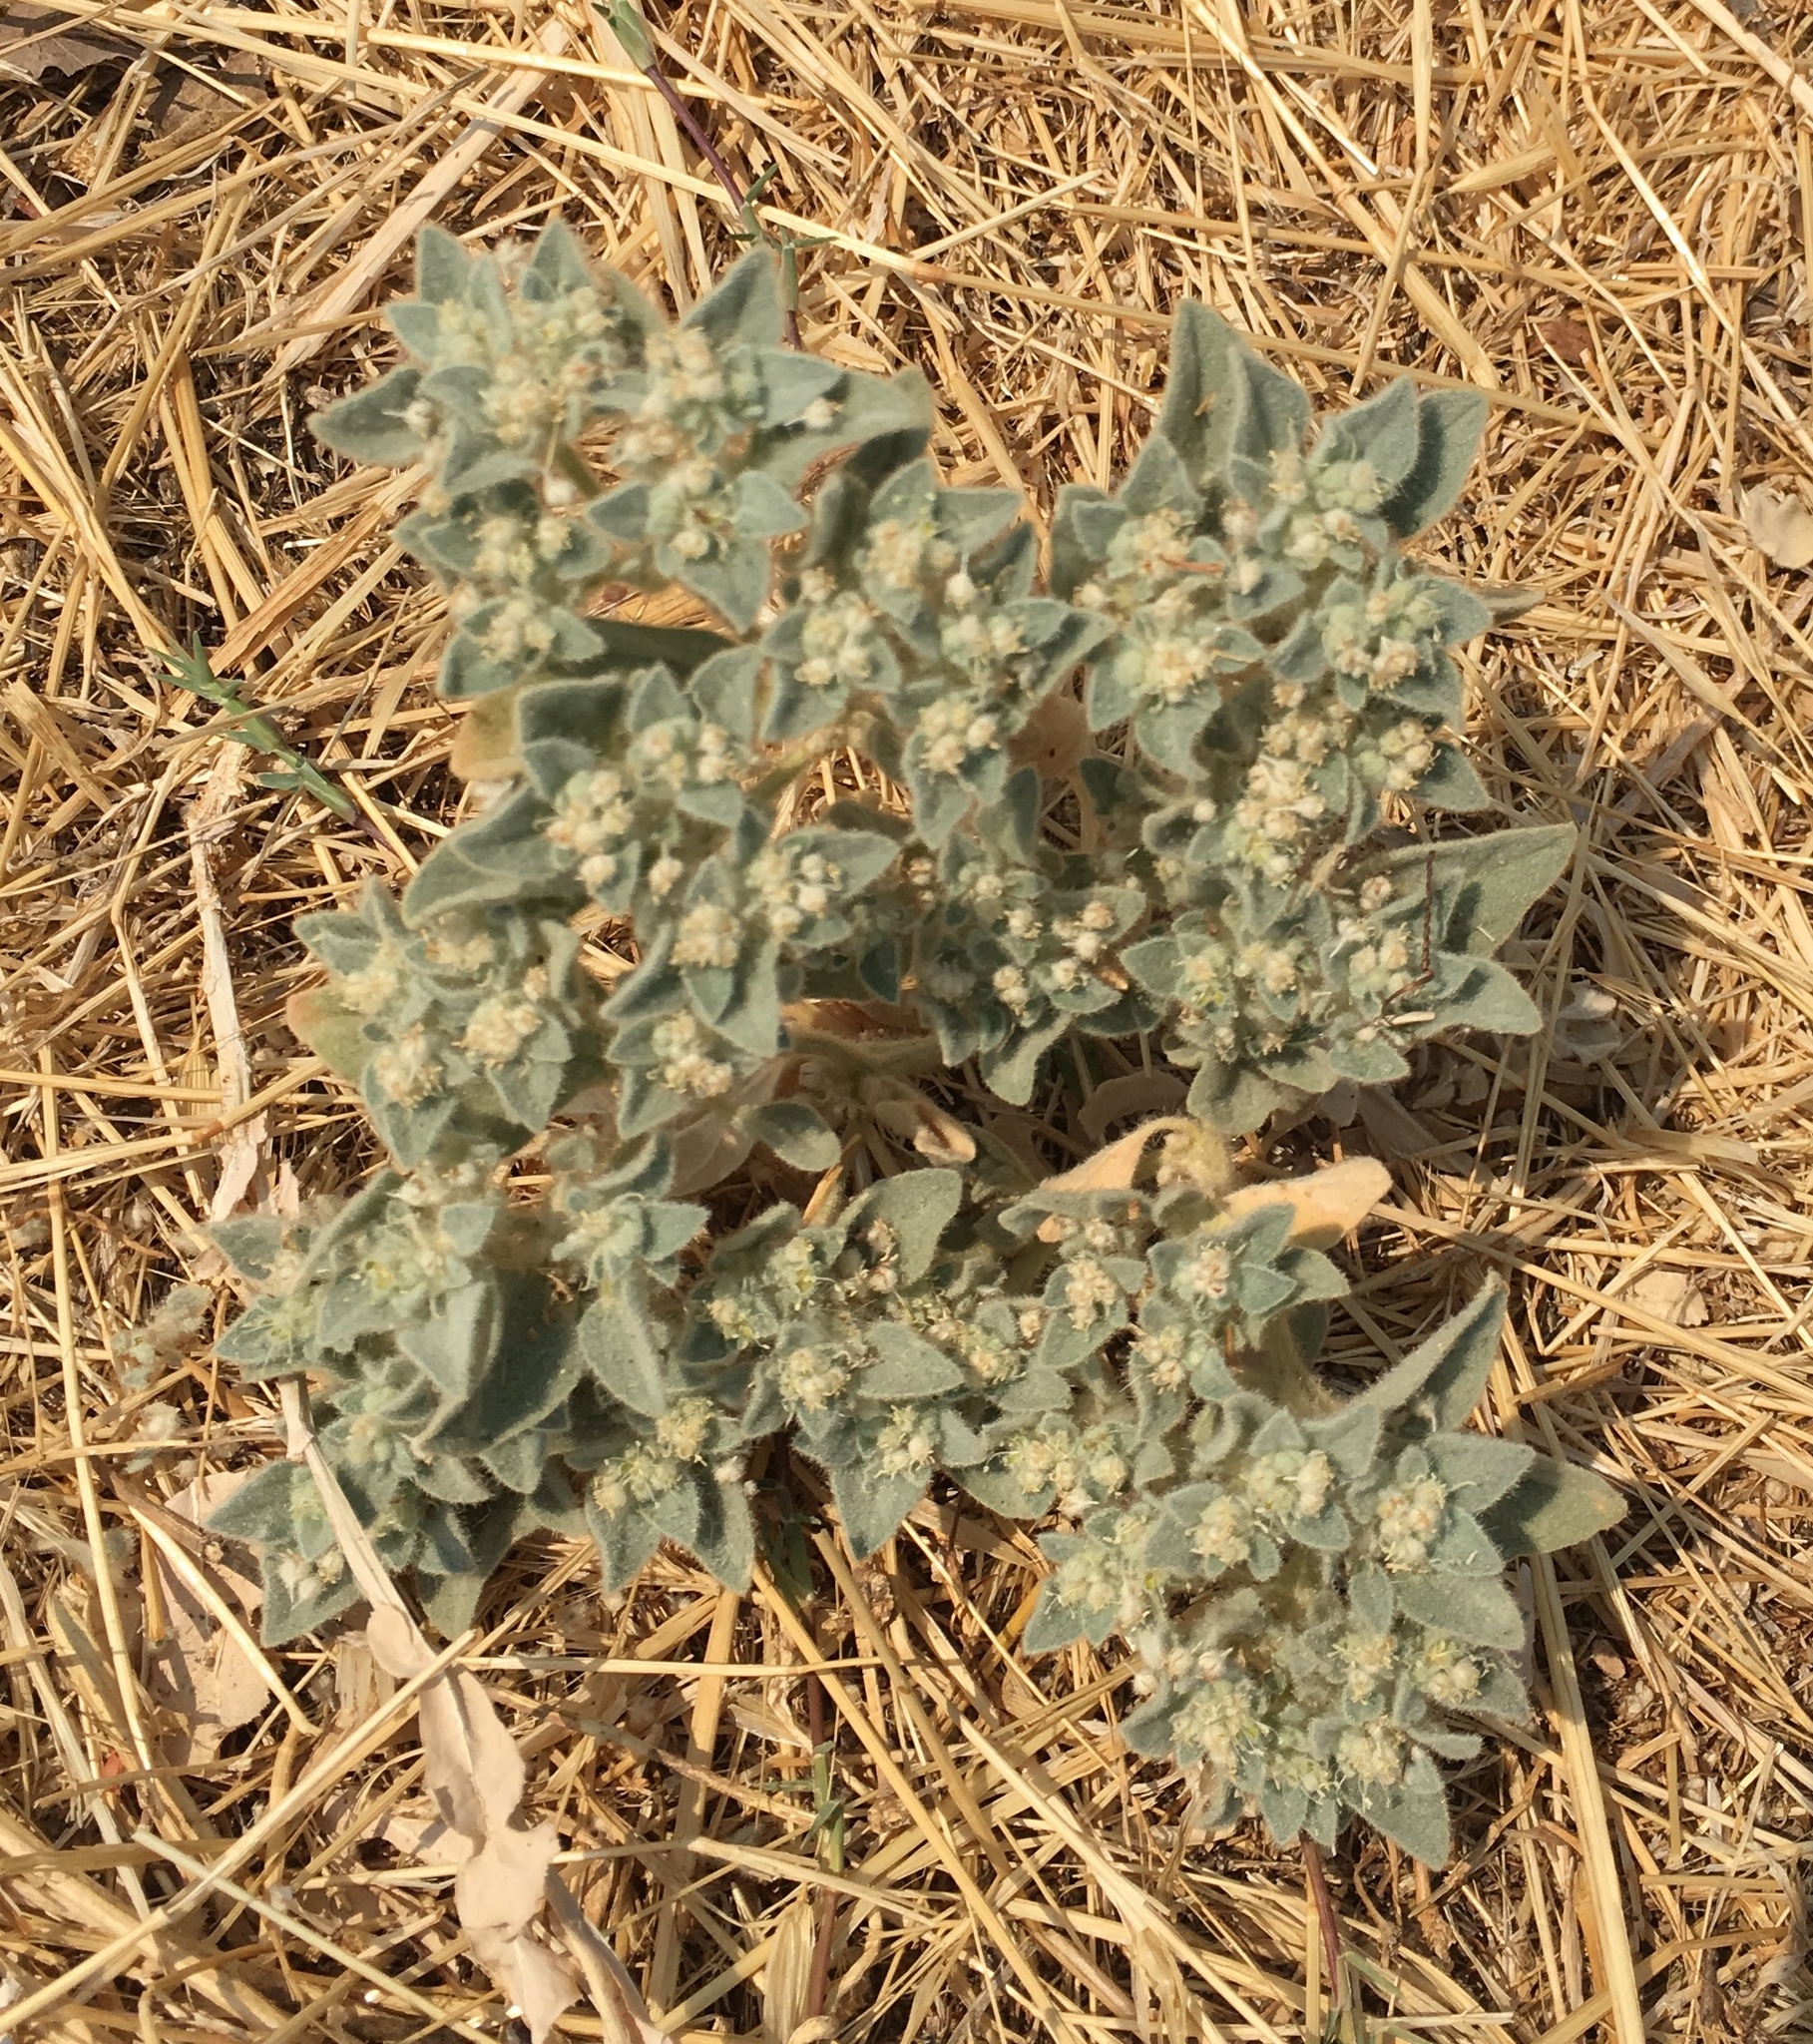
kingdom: Plantae
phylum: Tracheophyta
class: Magnoliopsida
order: Malpighiales
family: Euphorbiaceae
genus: Croton
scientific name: Croton setiger
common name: Dove weed
